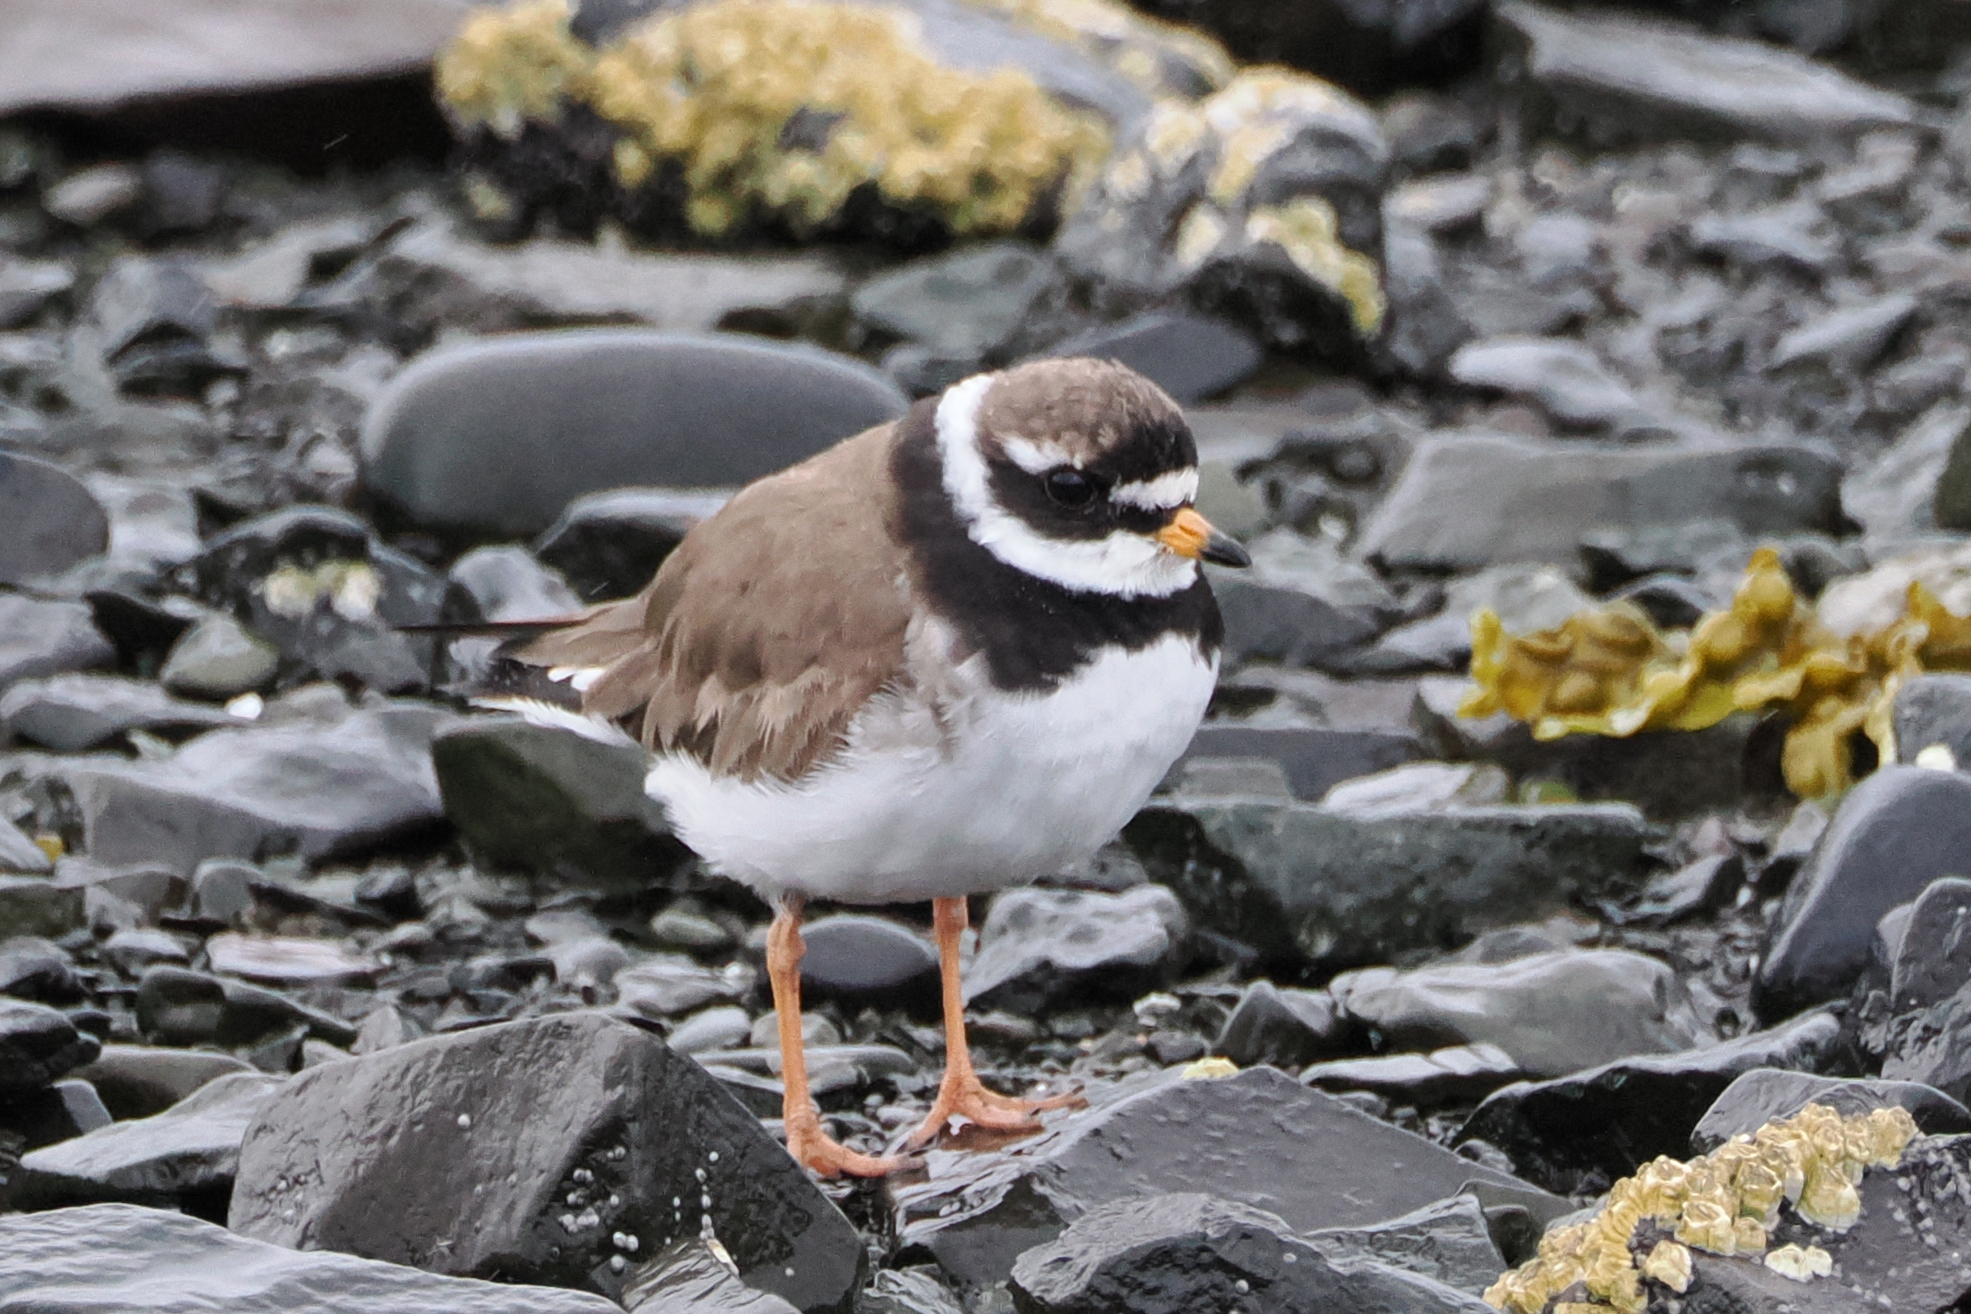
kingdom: Animalia
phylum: Chordata
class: Aves
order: Charadriiformes
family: Charadriidae
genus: Charadrius
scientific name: Charadrius hiaticula
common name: Common ringed plover
